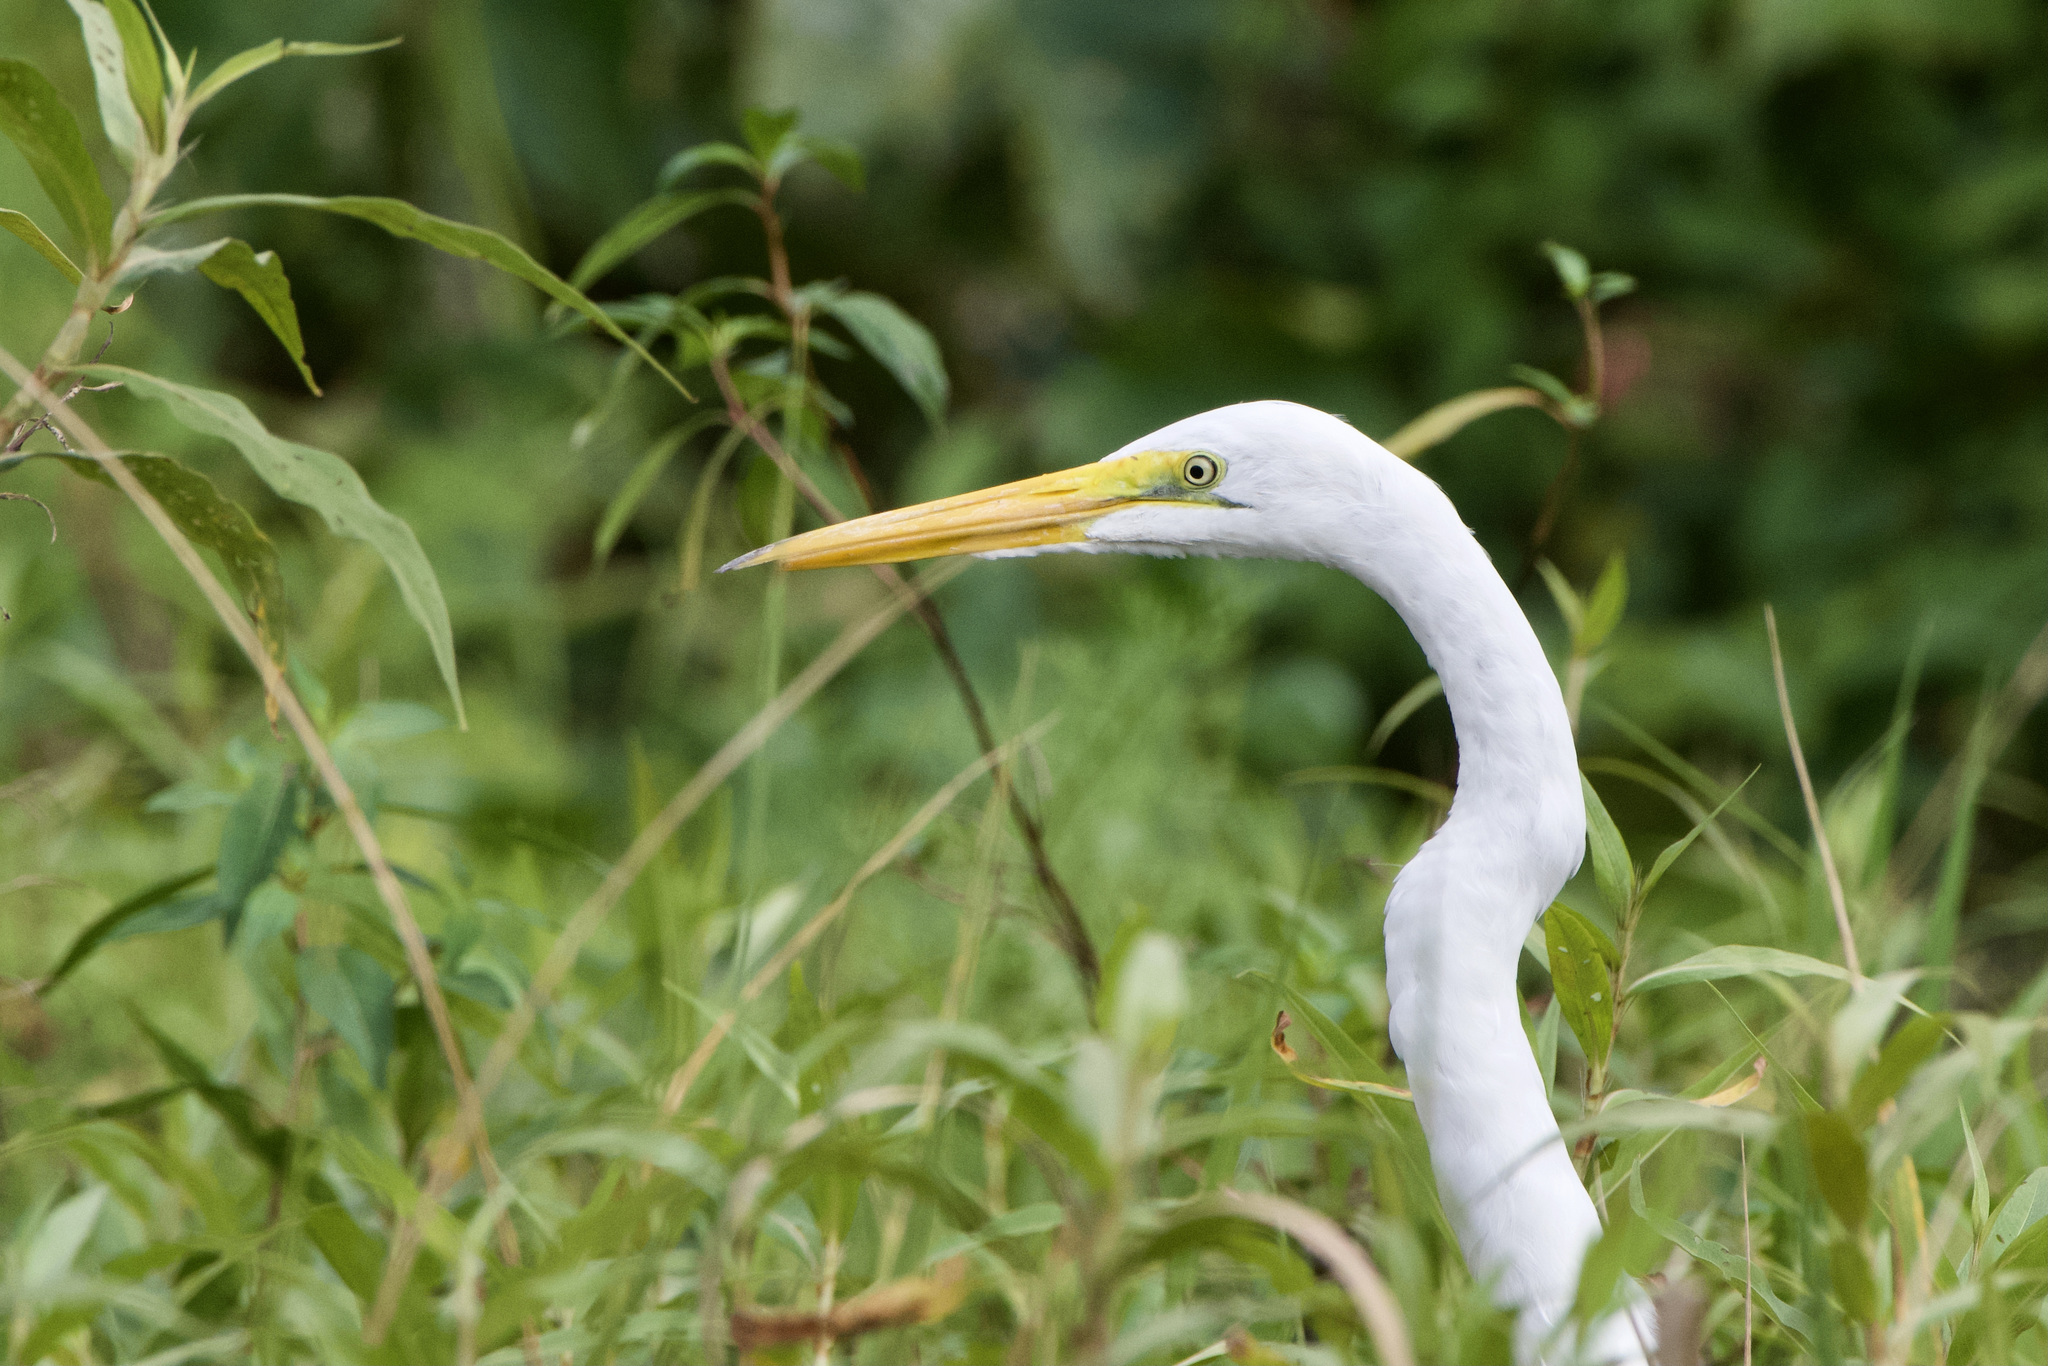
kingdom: Animalia
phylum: Chordata
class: Aves
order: Pelecaniformes
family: Ardeidae
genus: Ardea
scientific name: Ardea alba
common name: Great egret
